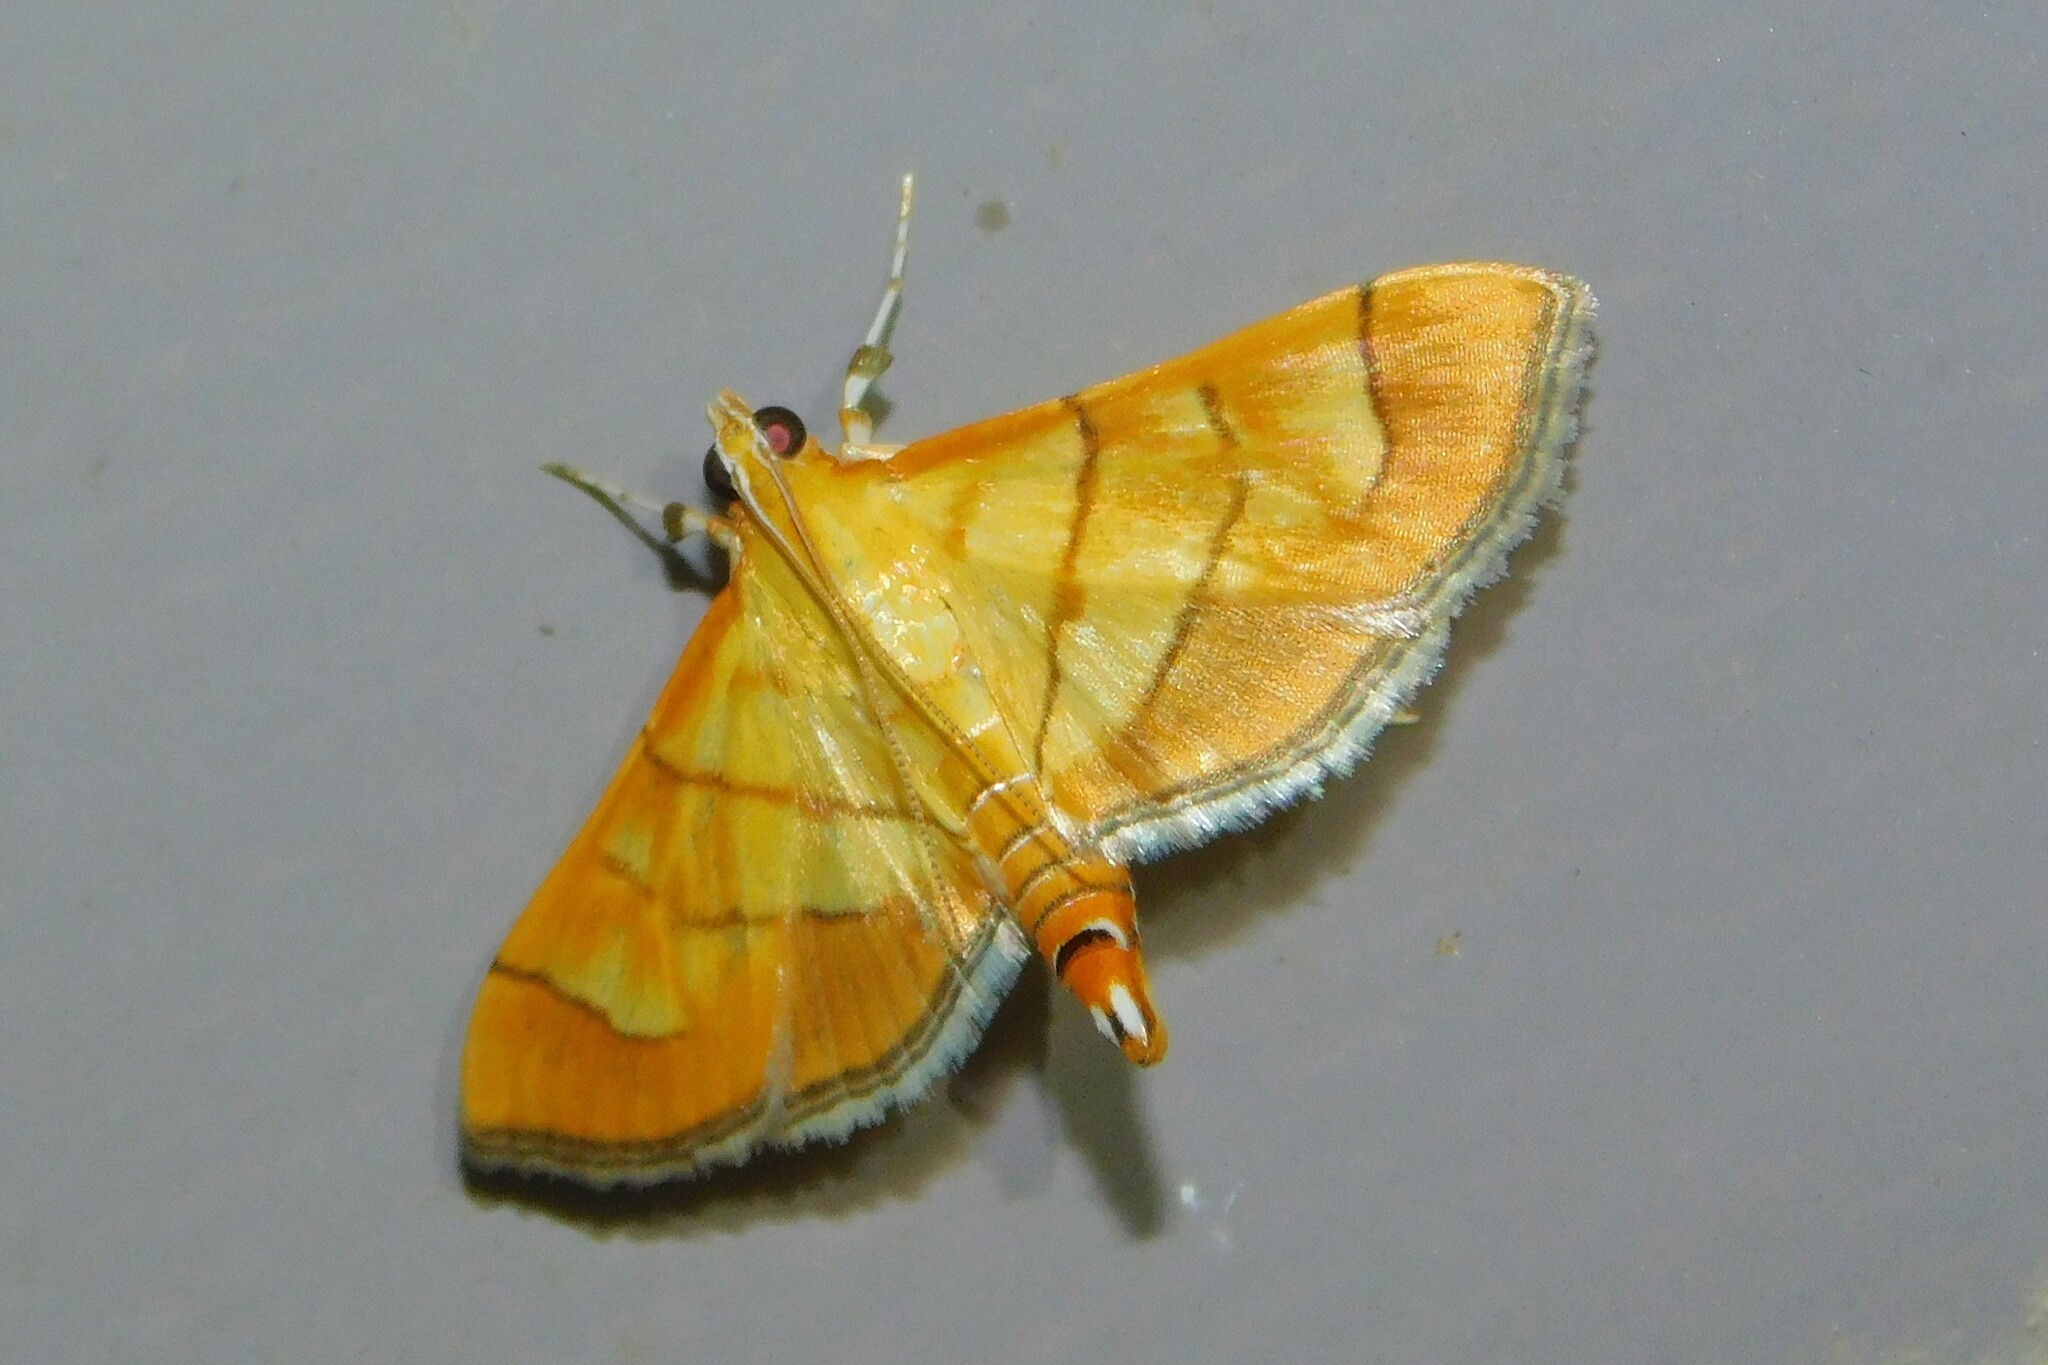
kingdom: Animalia
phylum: Arthropoda
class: Insecta
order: Lepidoptera
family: Crambidae
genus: Orphanostigma
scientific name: Orphanostigma abruptalis
